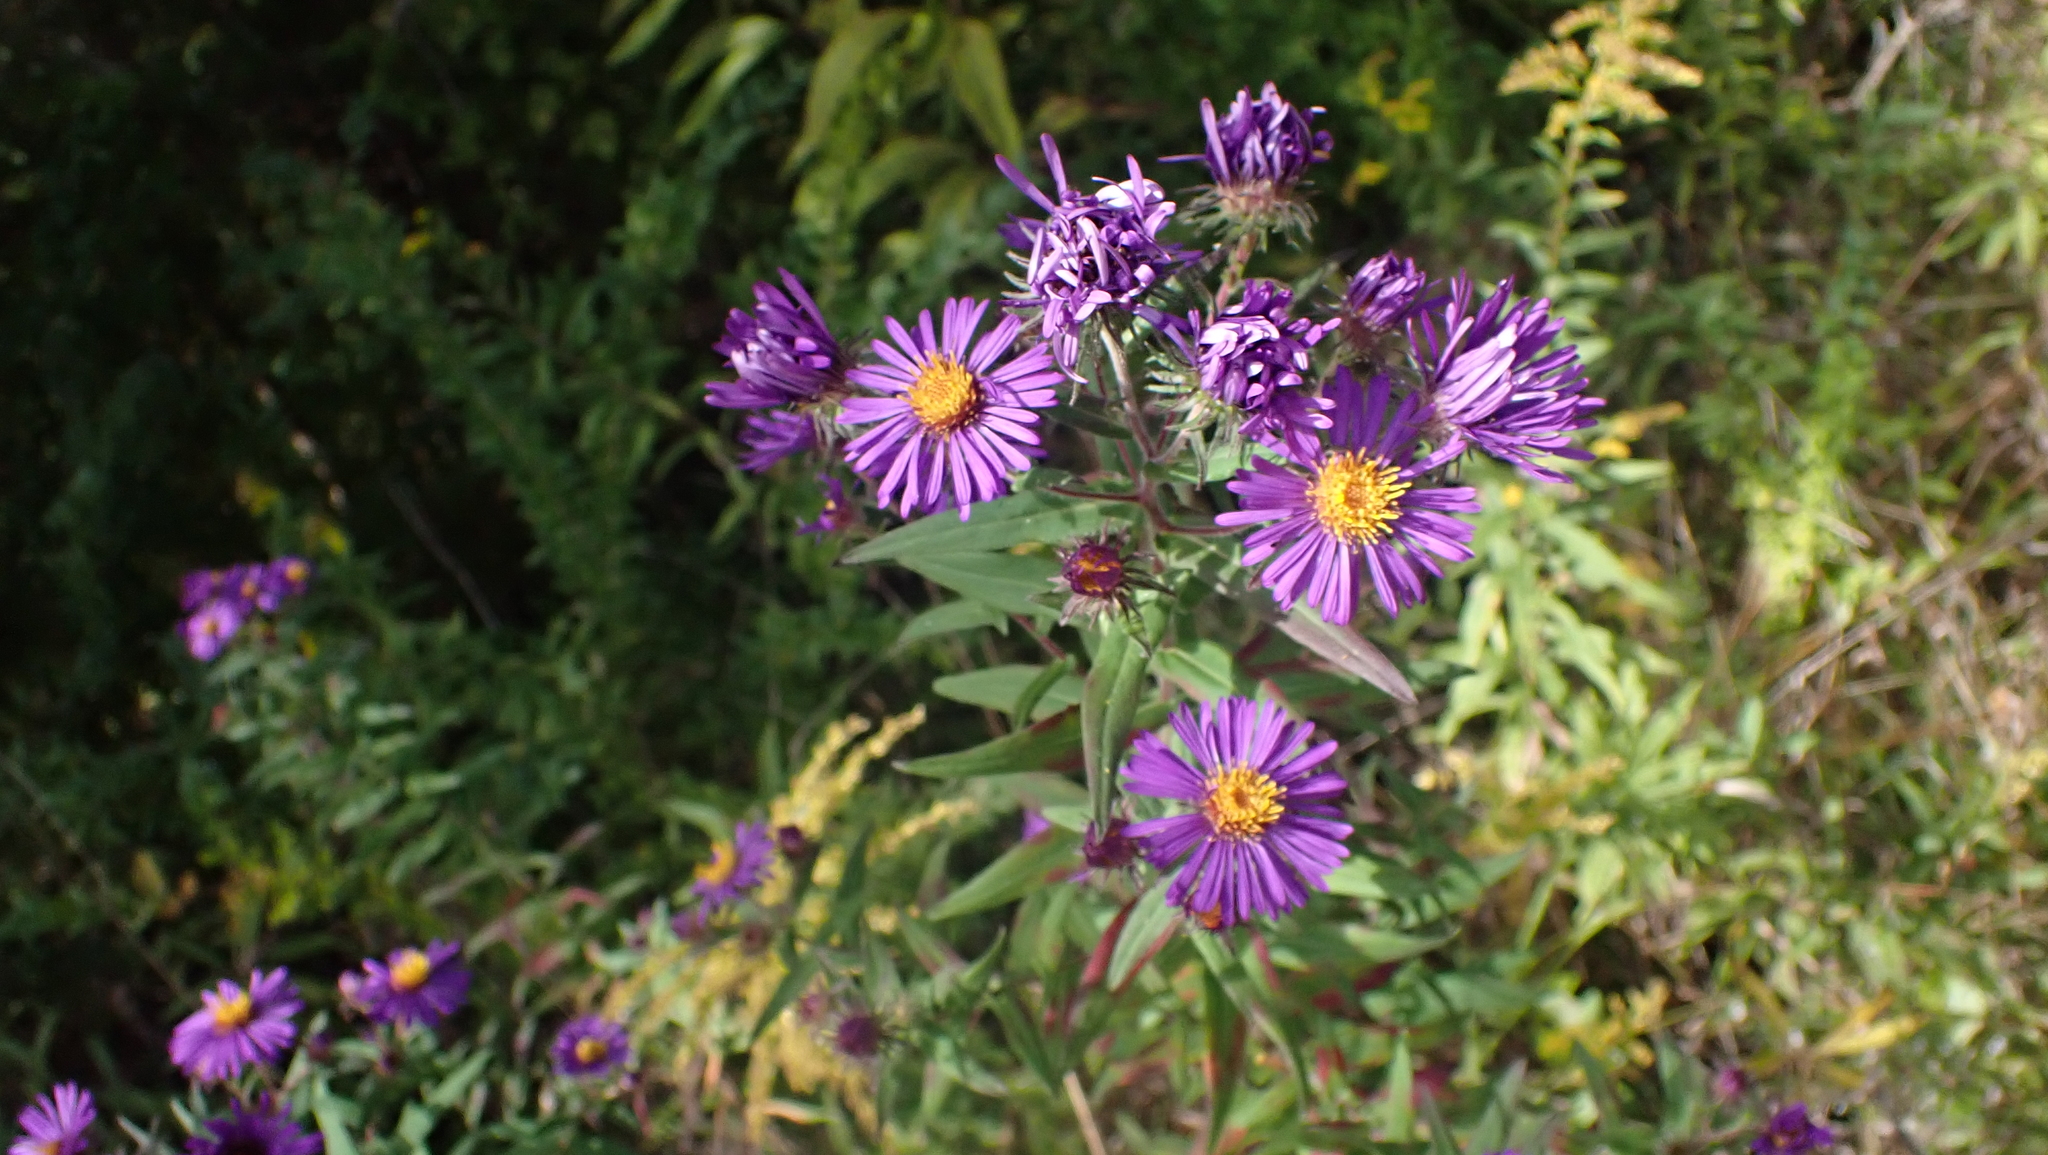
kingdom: Plantae
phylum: Tracheophyta
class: Magnoliopsida
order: Asterales
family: Asteraceae
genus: Symphyotrichum
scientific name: Symphyotrichum novae-angliae
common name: Michaelmas daisy
